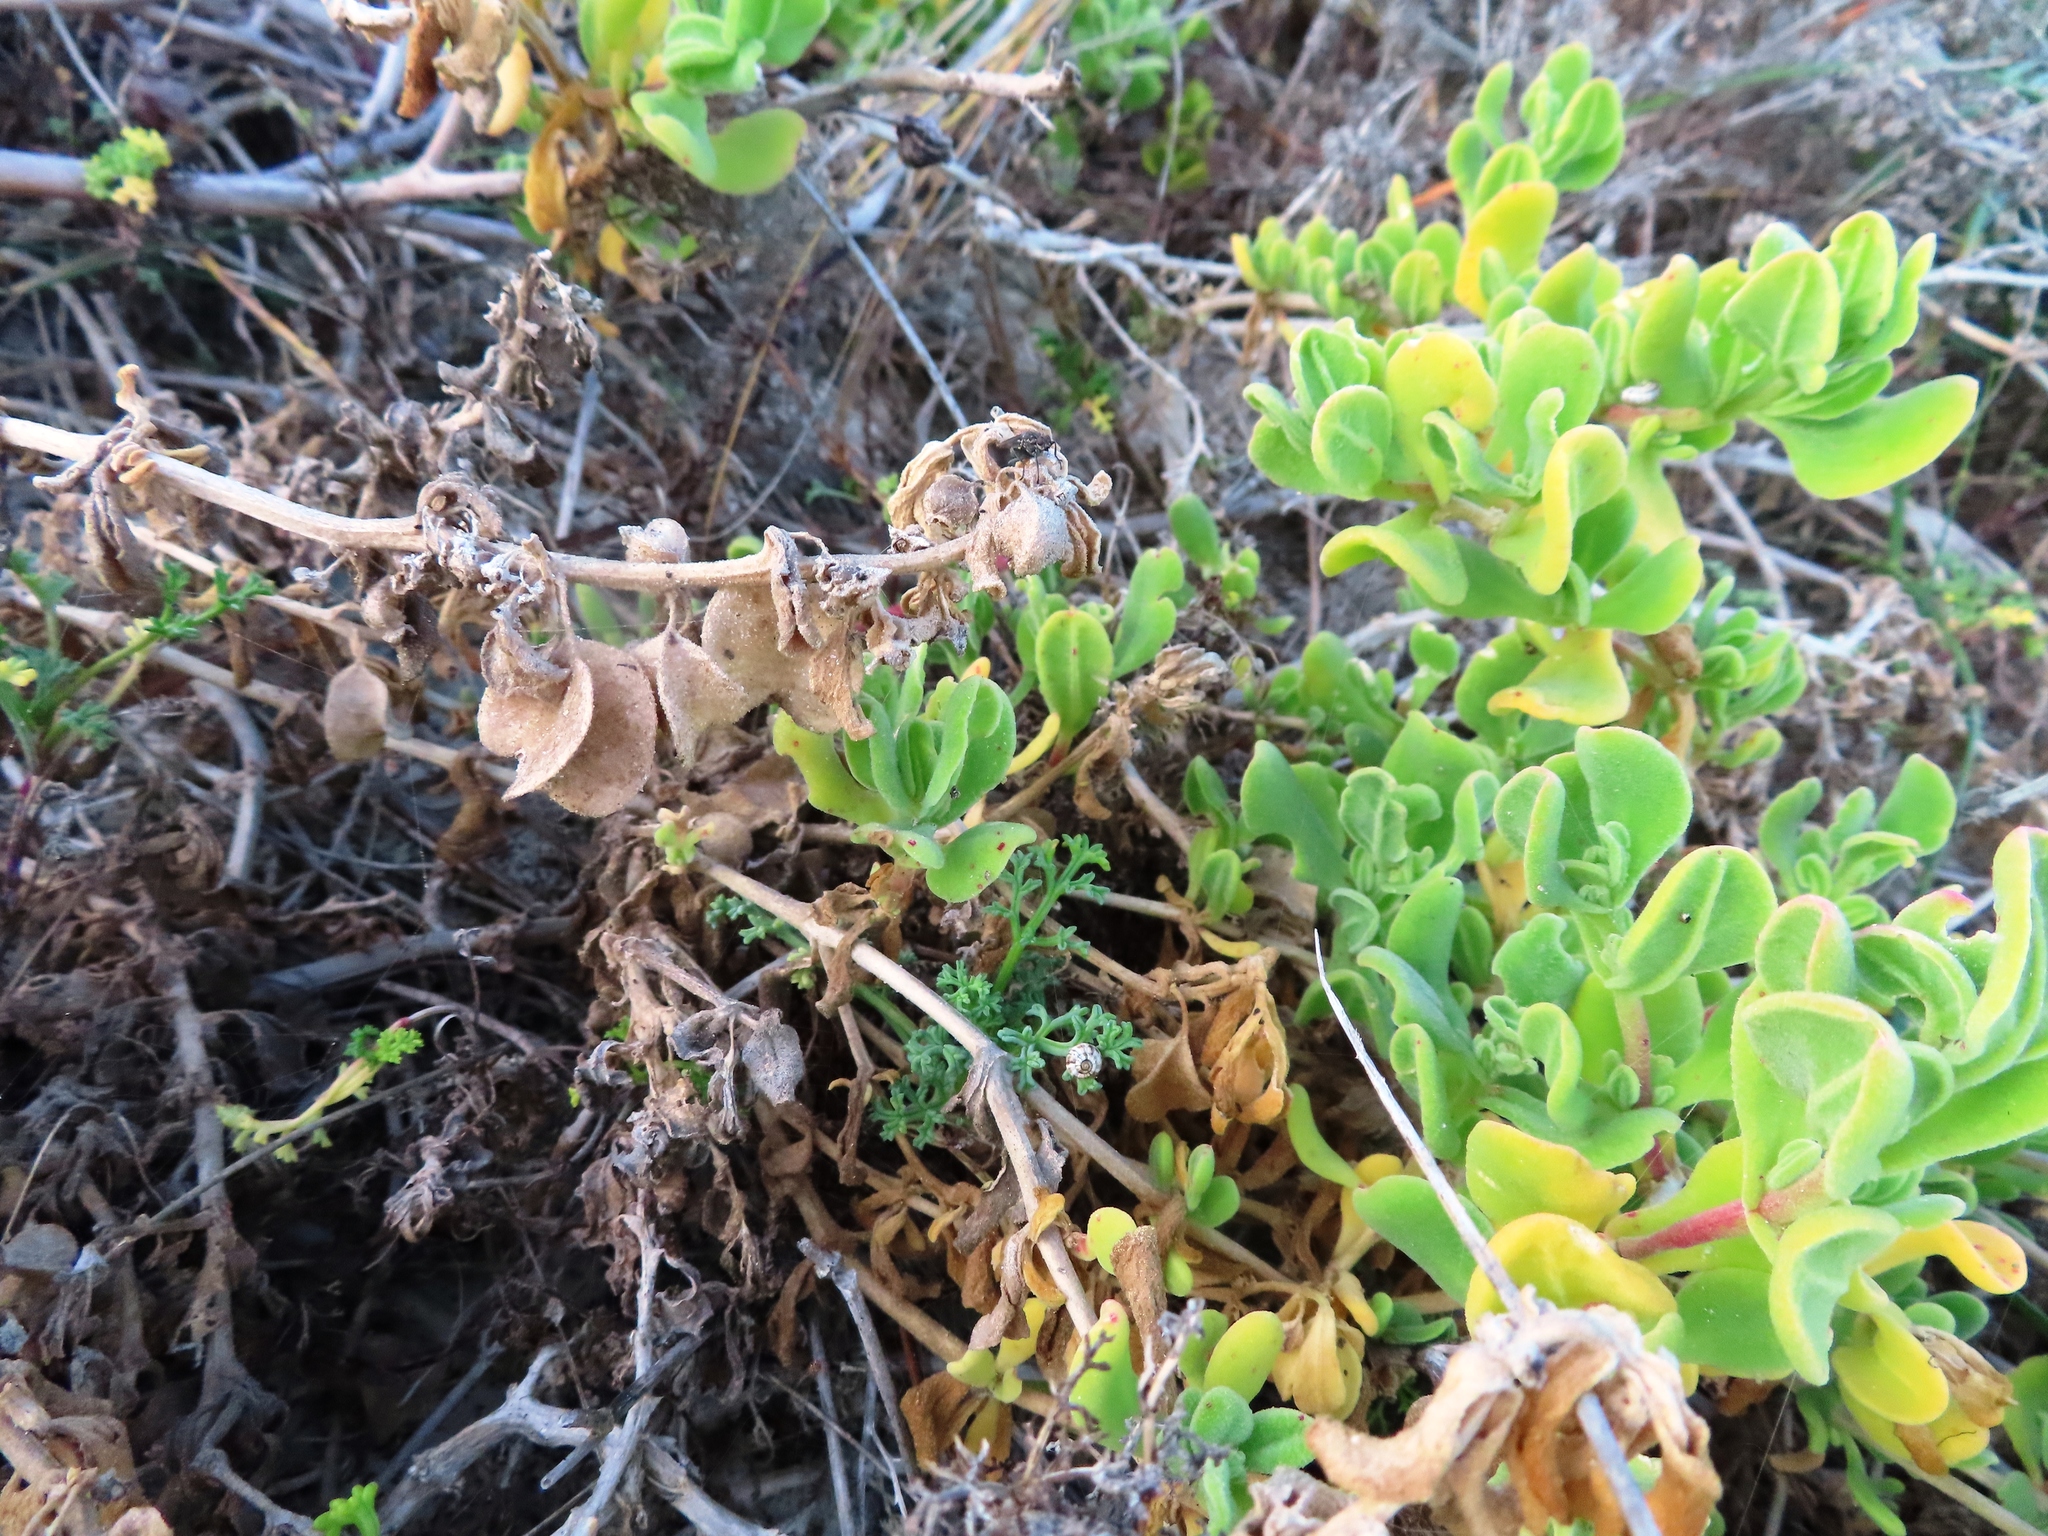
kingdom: Plantae
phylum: Tracheophyta
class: Magnoliopsida
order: Caryophyllales
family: Aizoaceae
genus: Tetragonia
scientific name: Tetragonia decumbens
